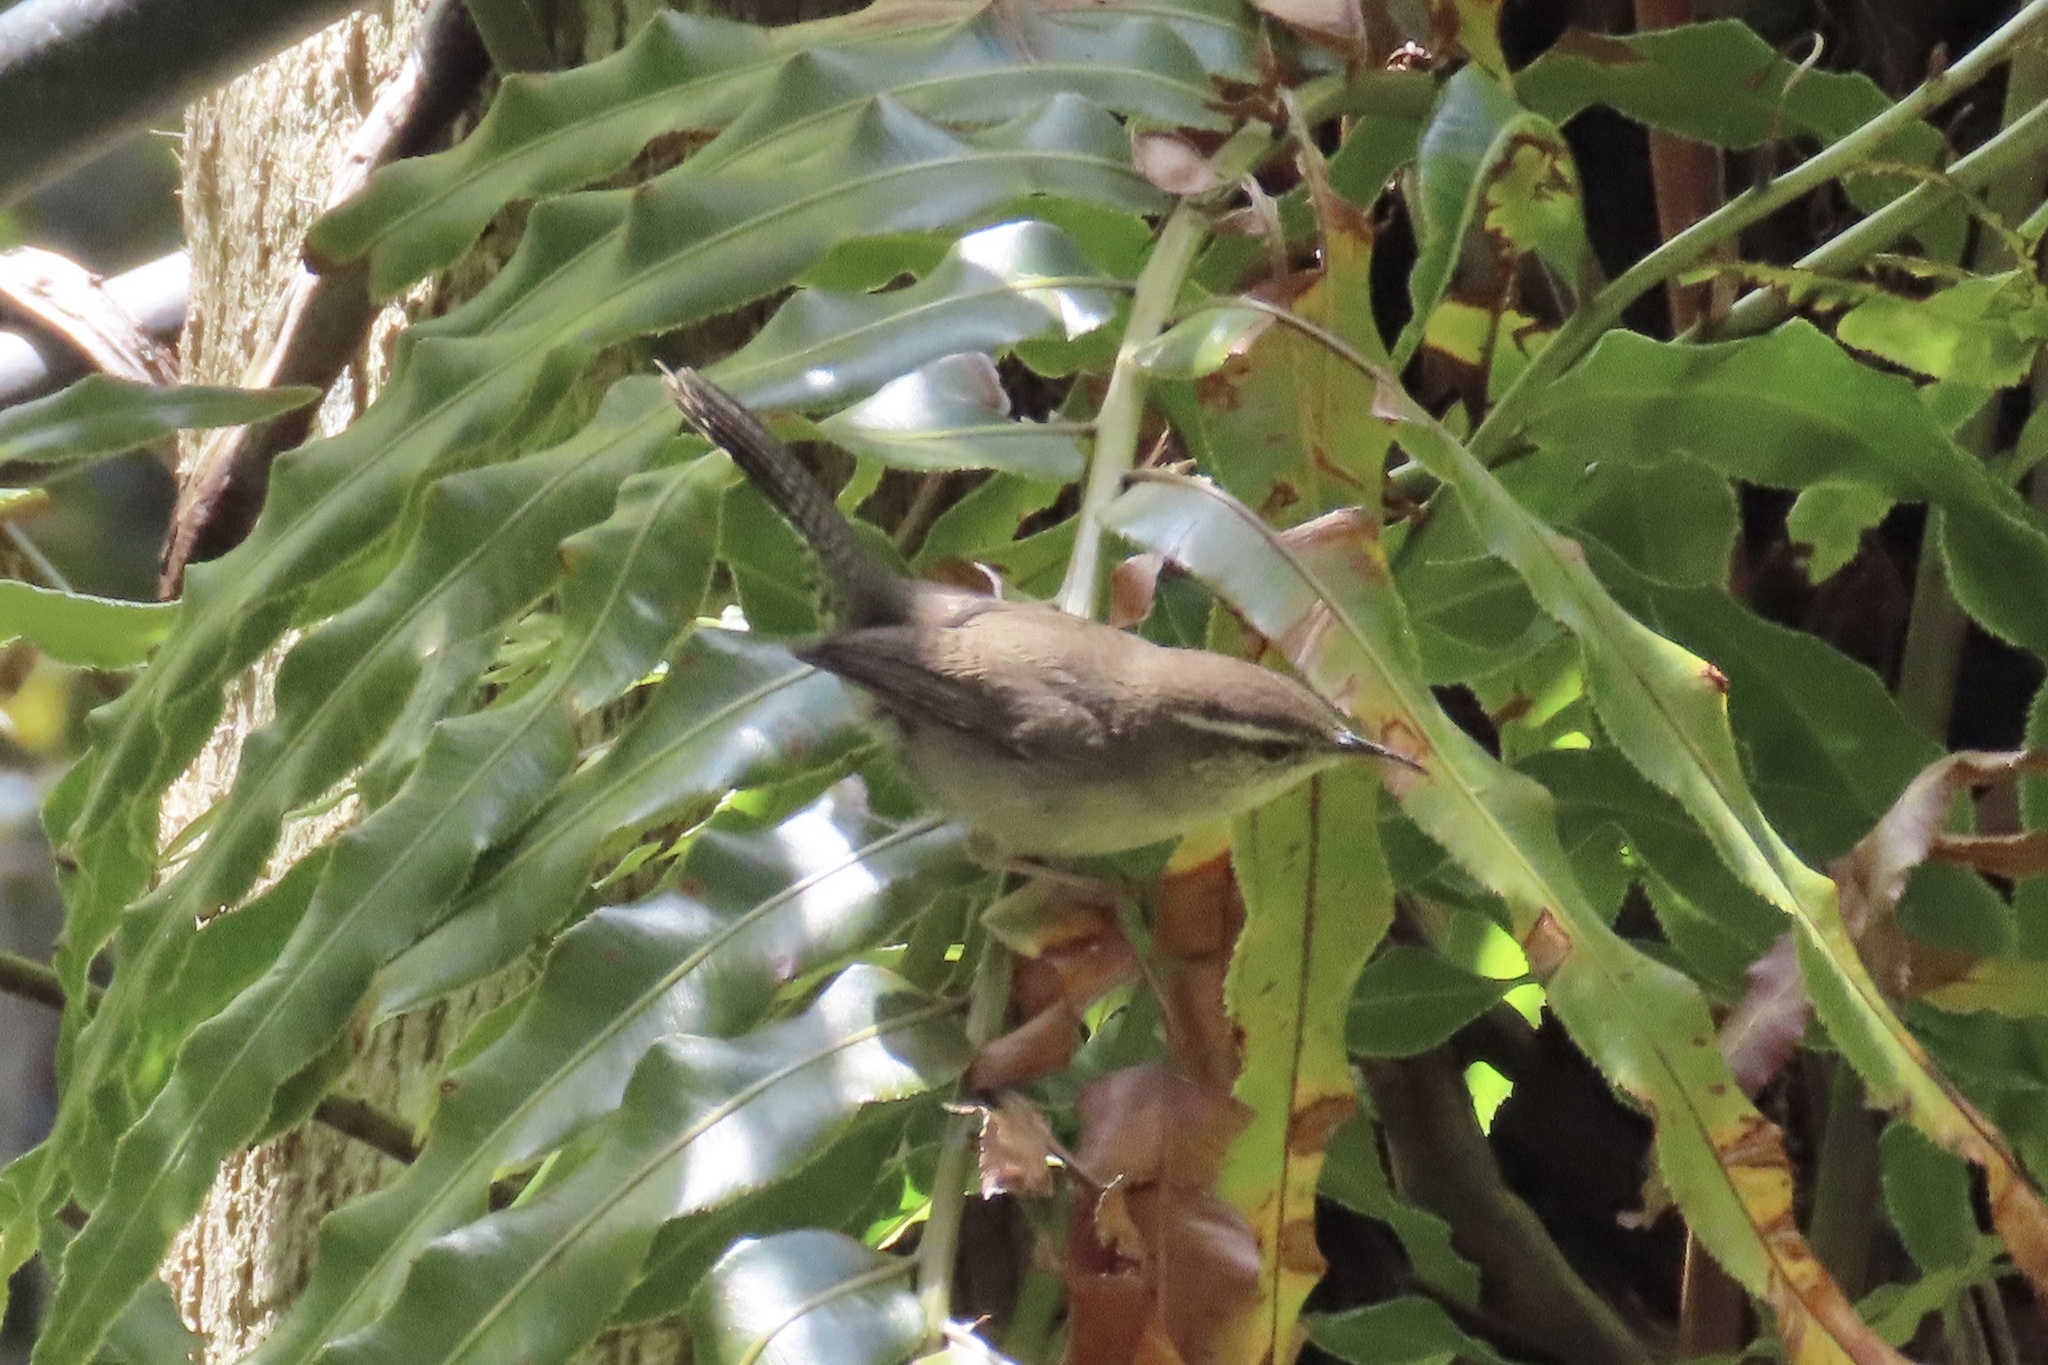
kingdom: Animalia
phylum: Chordata
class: Aves
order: Passeriformes
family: Troglodytidae
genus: Thryomanes
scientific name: Thryomanes bewickii
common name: Bewick's wren
